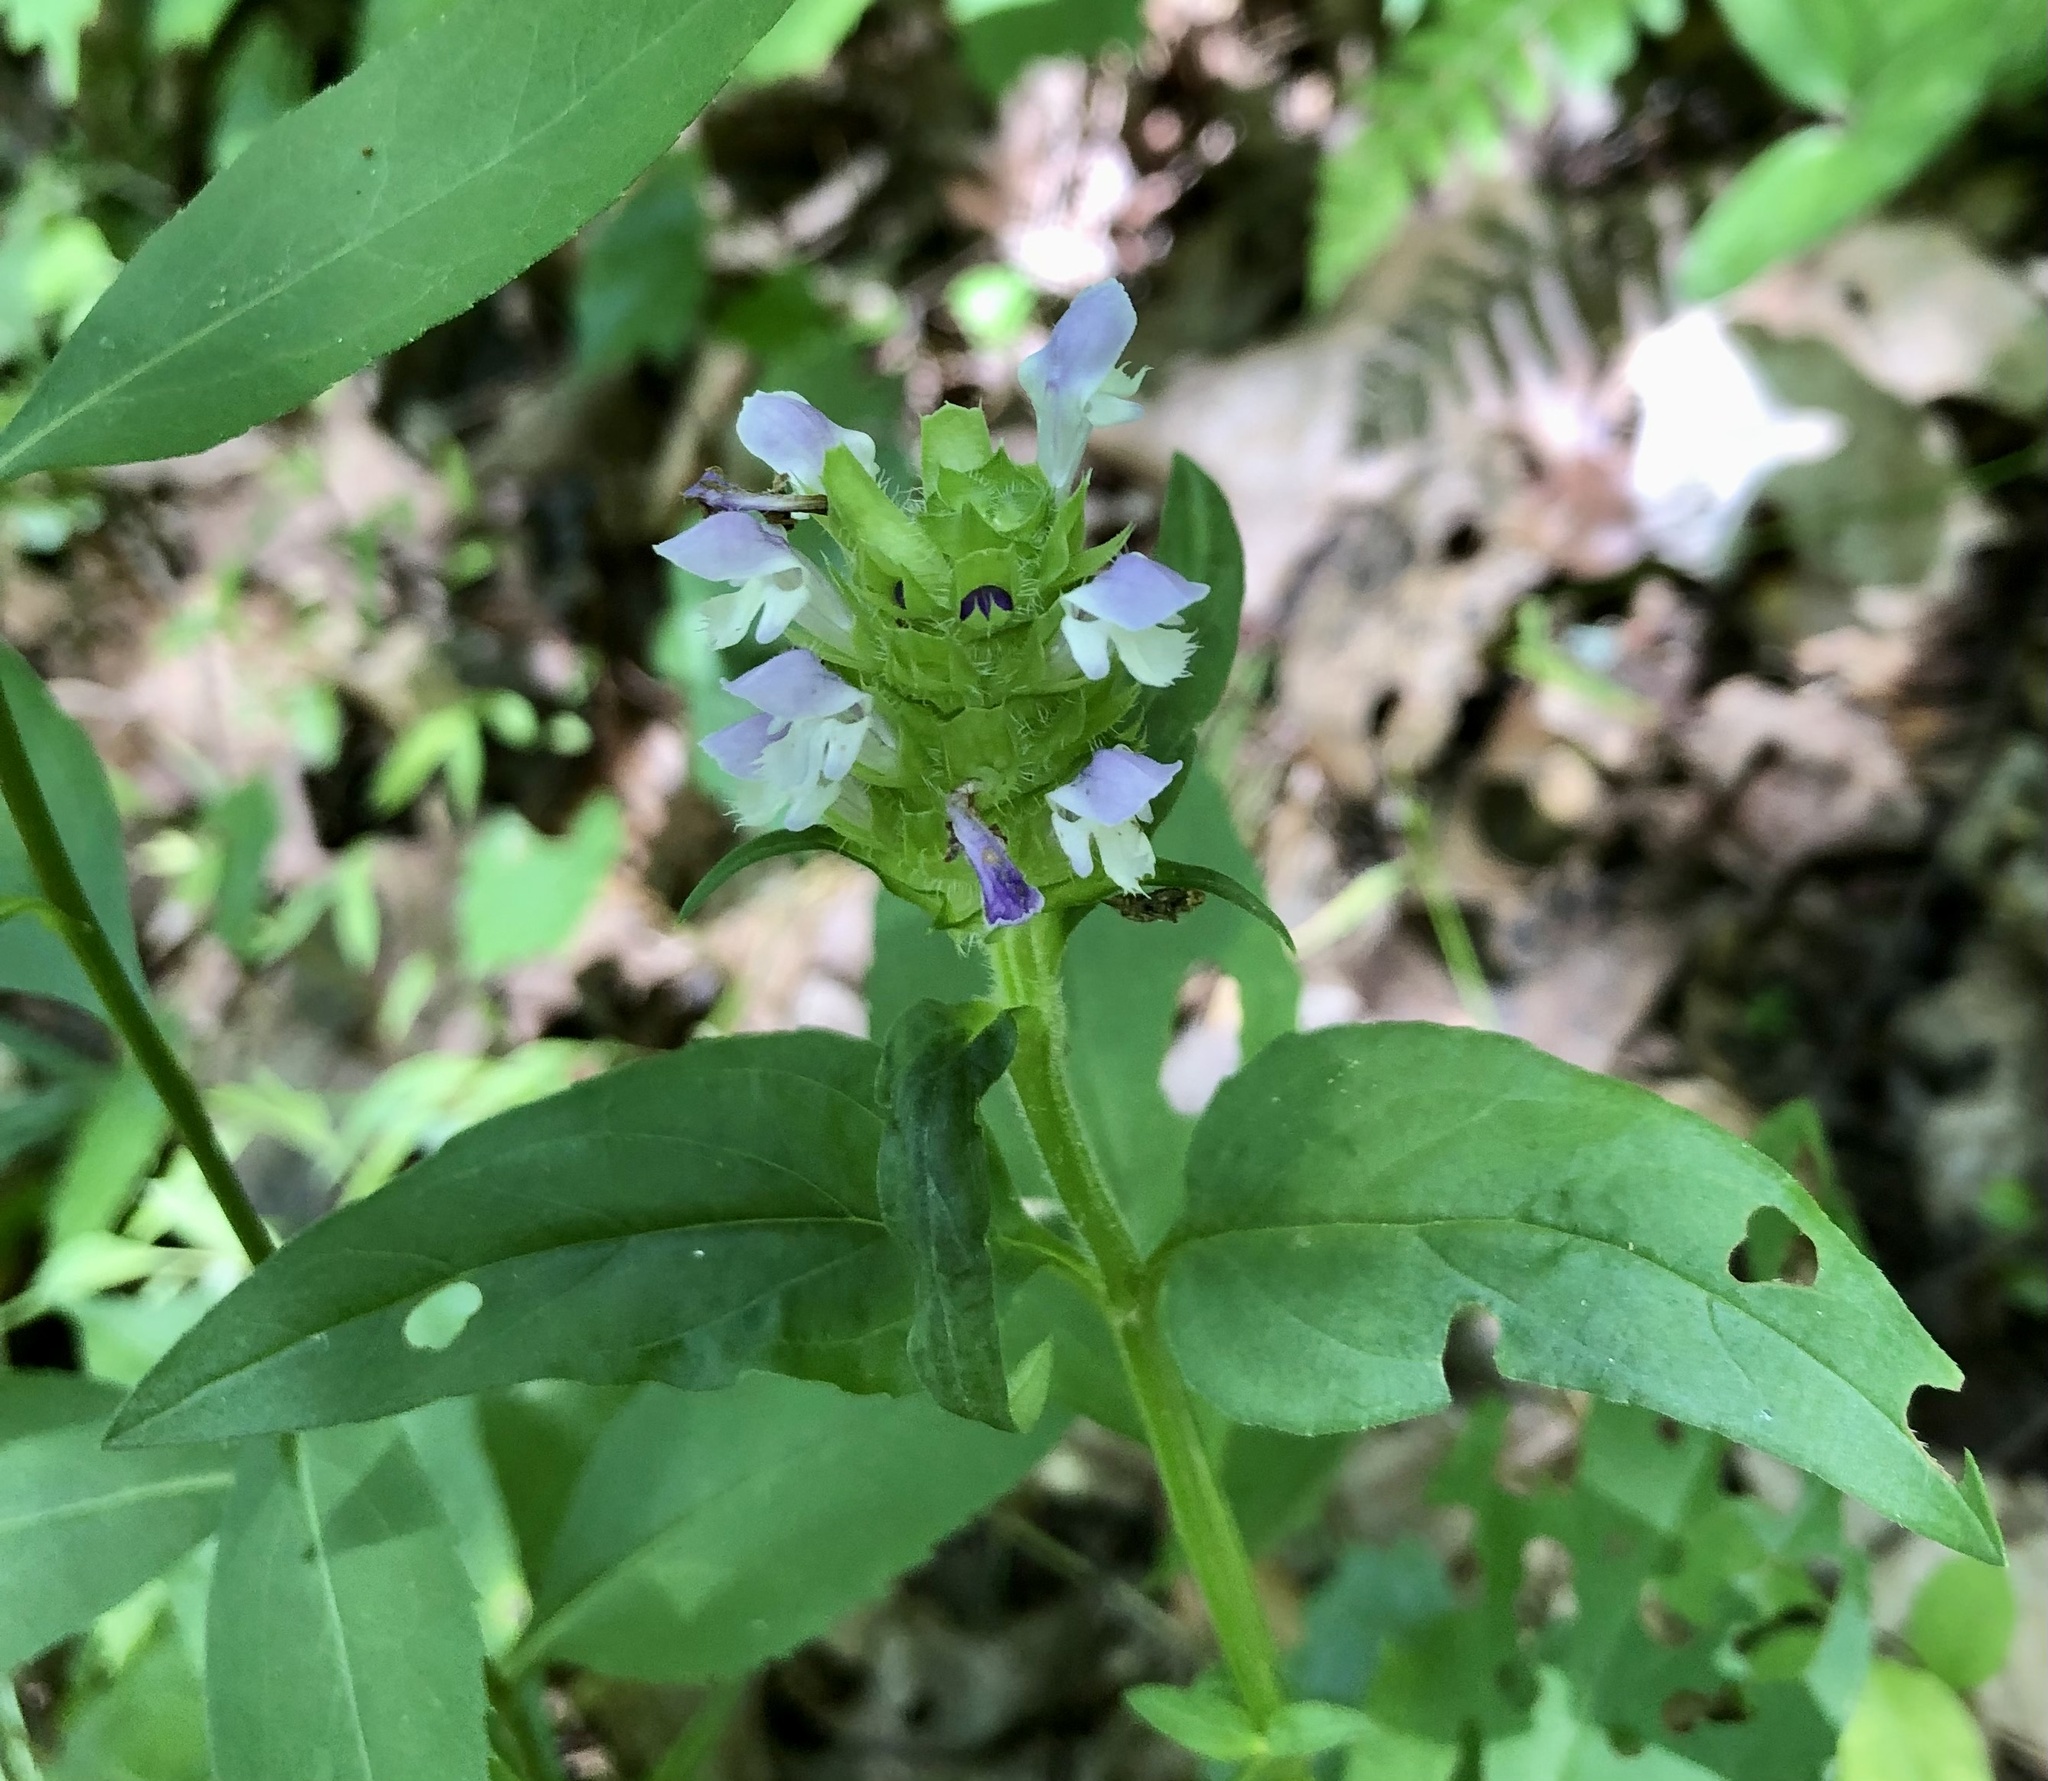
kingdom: Plantae
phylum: Tracheophyta
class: Magnoliopsida
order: Lamiales
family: Lamiaceae
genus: Prunella
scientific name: Prunella vulgaris
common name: Heal-all
